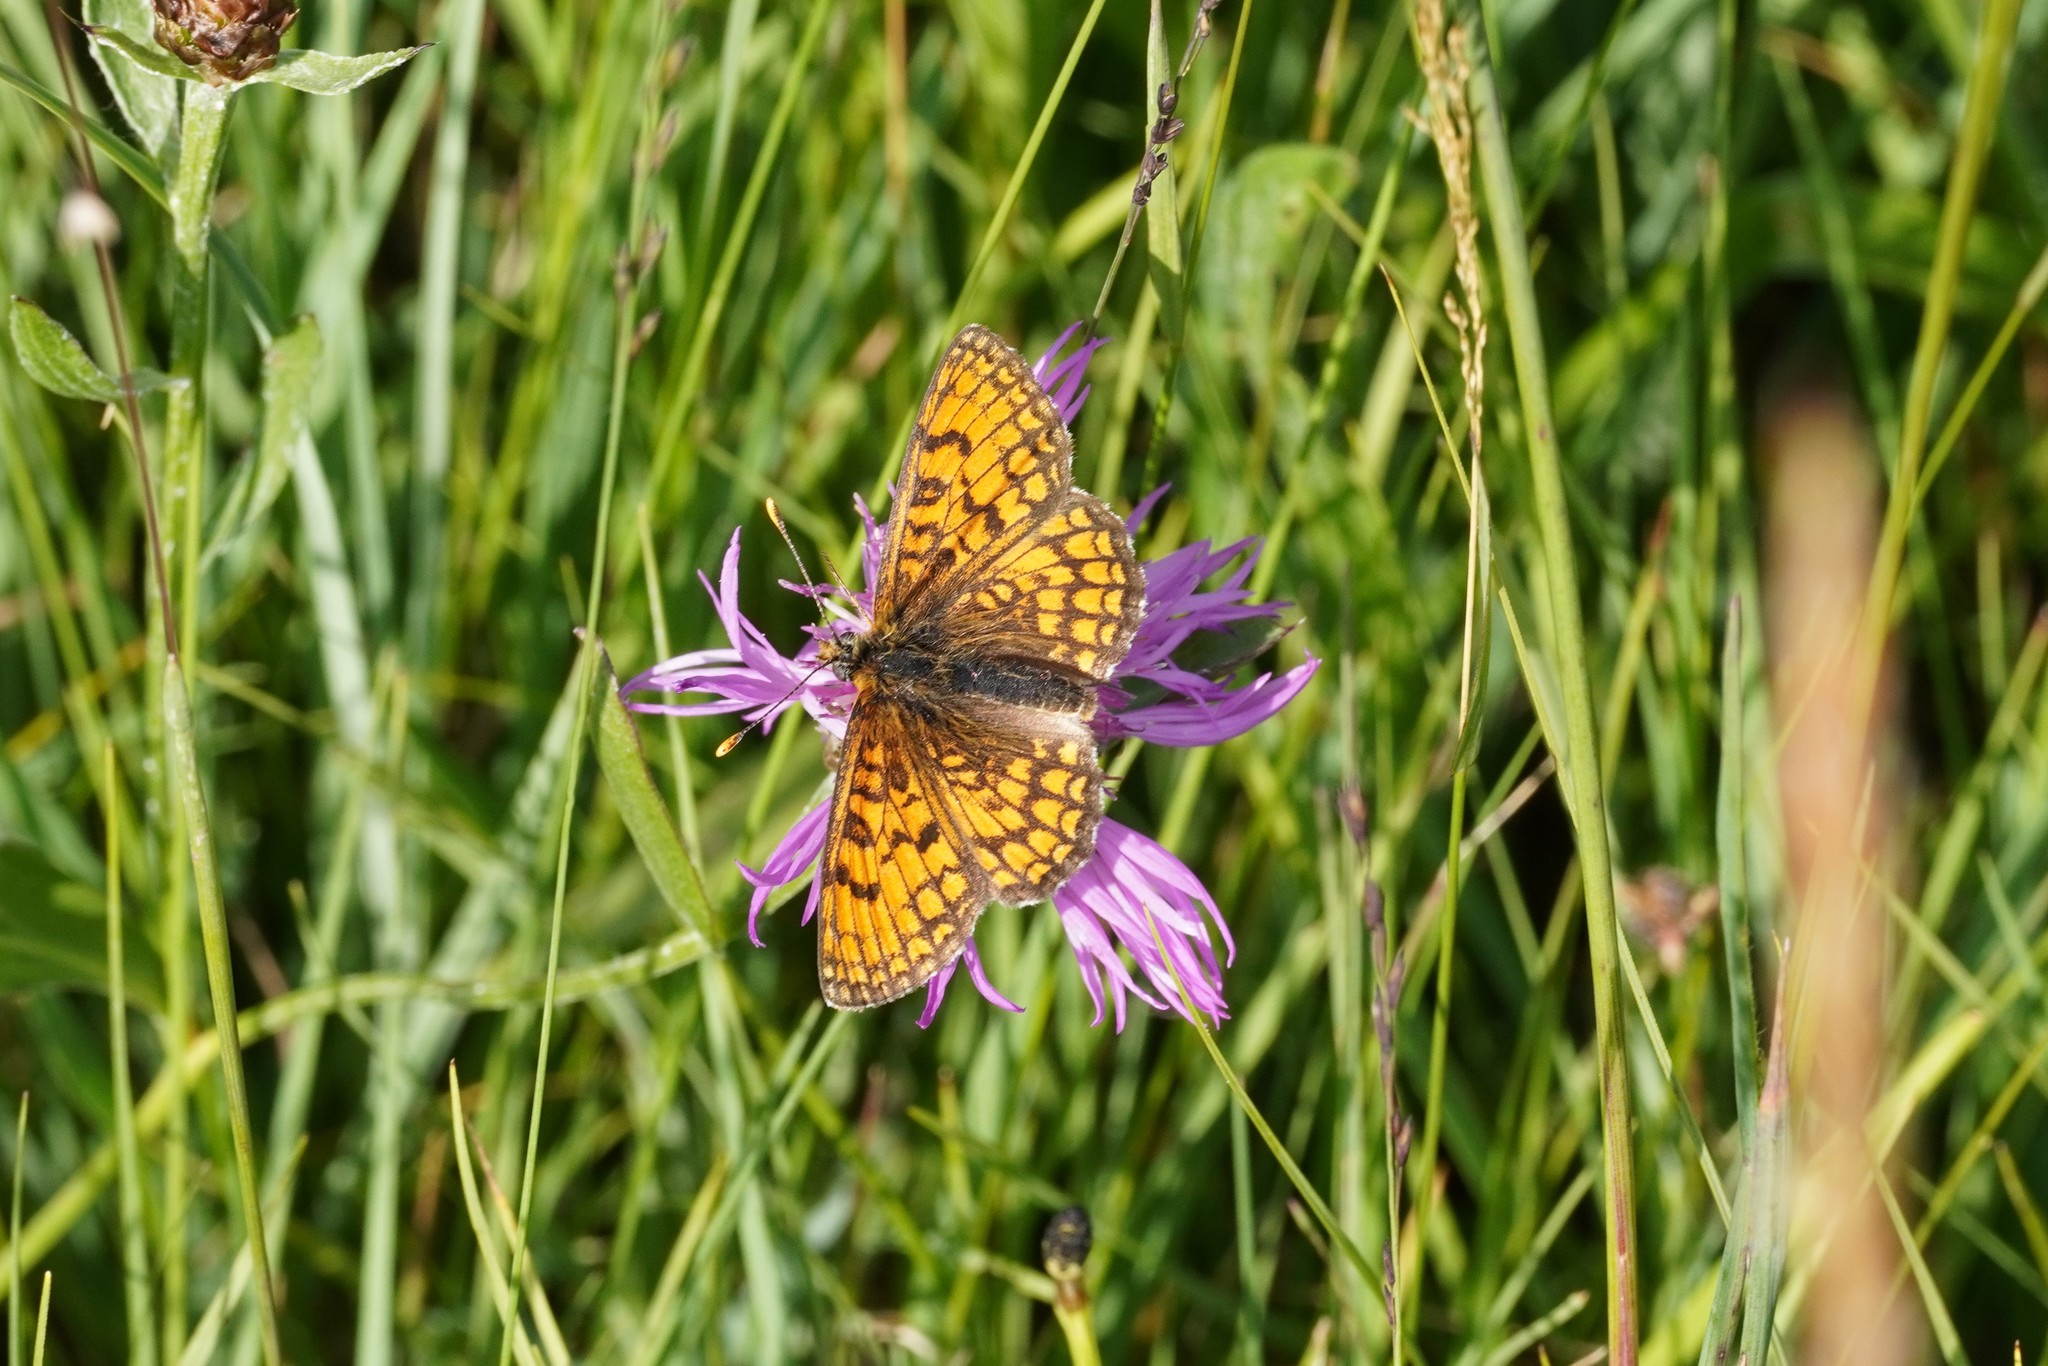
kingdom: Animalia
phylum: Arthropoda
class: Insecta
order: Lepidoptera
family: Nymphalidae
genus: Mellicta
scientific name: Mellicta parthenoides
